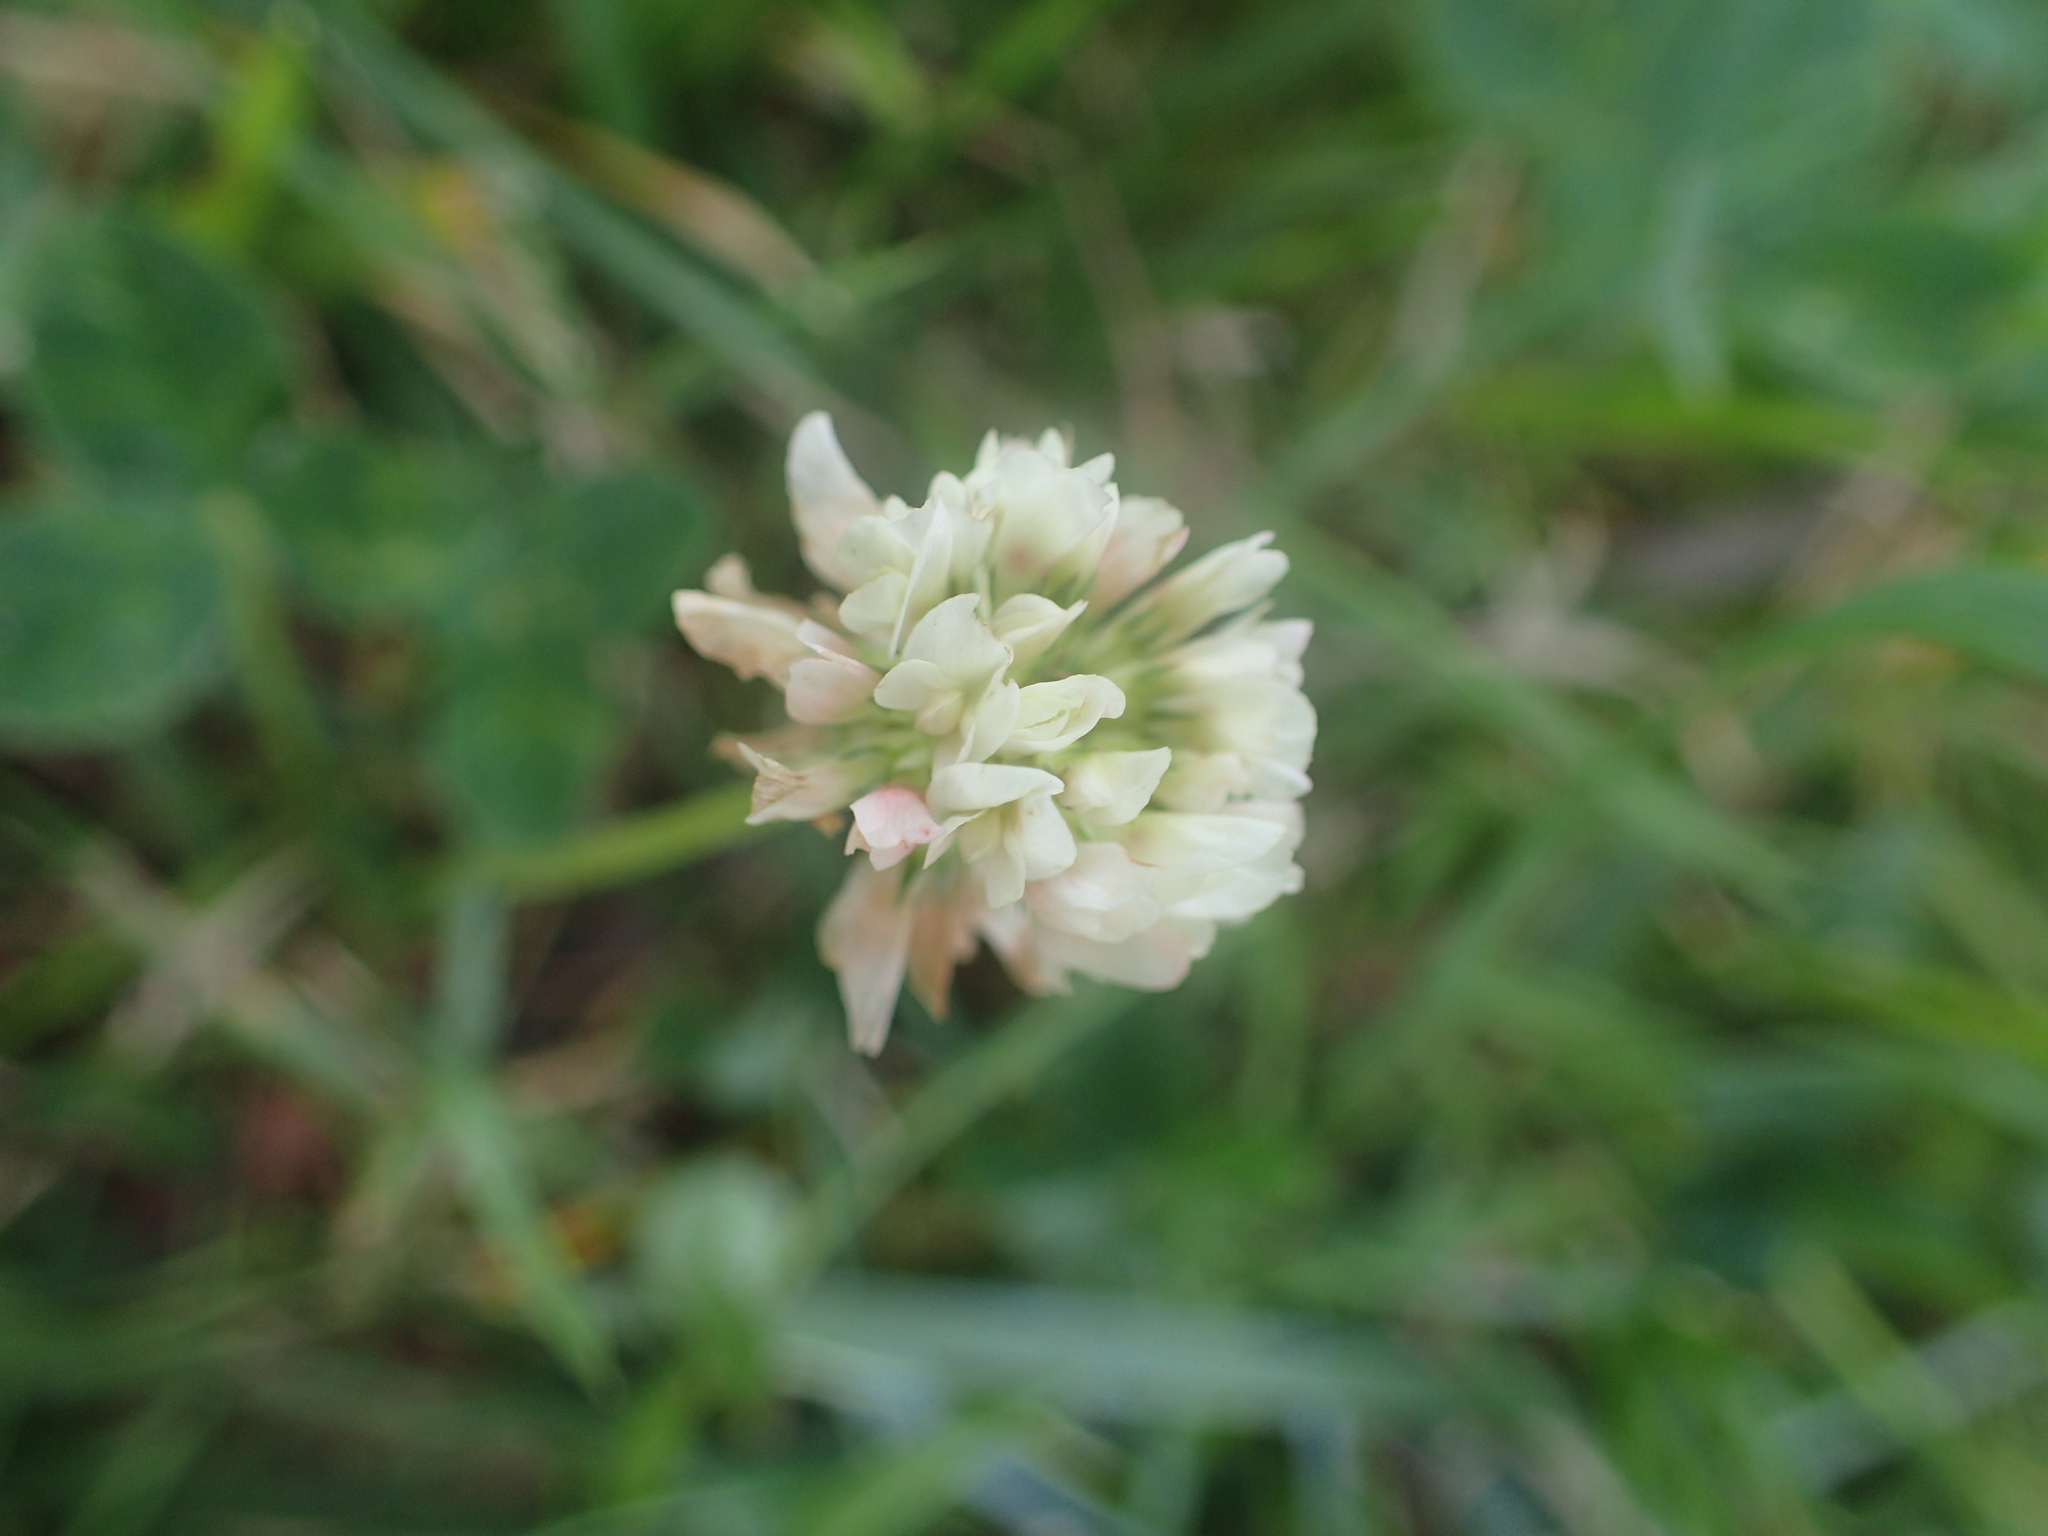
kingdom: Plantae
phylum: Tracheophyta
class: Magnoliopsida
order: Fabales
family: Fabaceae
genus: Trifolium
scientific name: Trifolium repens
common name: White clover
